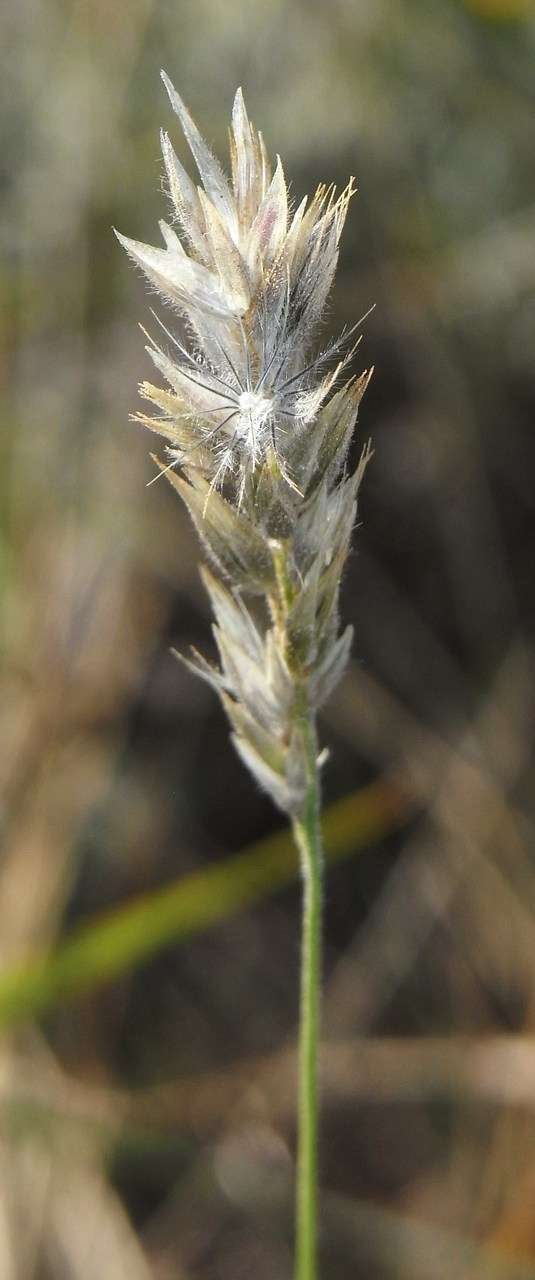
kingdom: Plantae
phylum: Tracheophyta
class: Liliopsida
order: Poales
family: Poaceae
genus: Enneapogon
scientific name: Enneapogon nigricans
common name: Pappus grass
